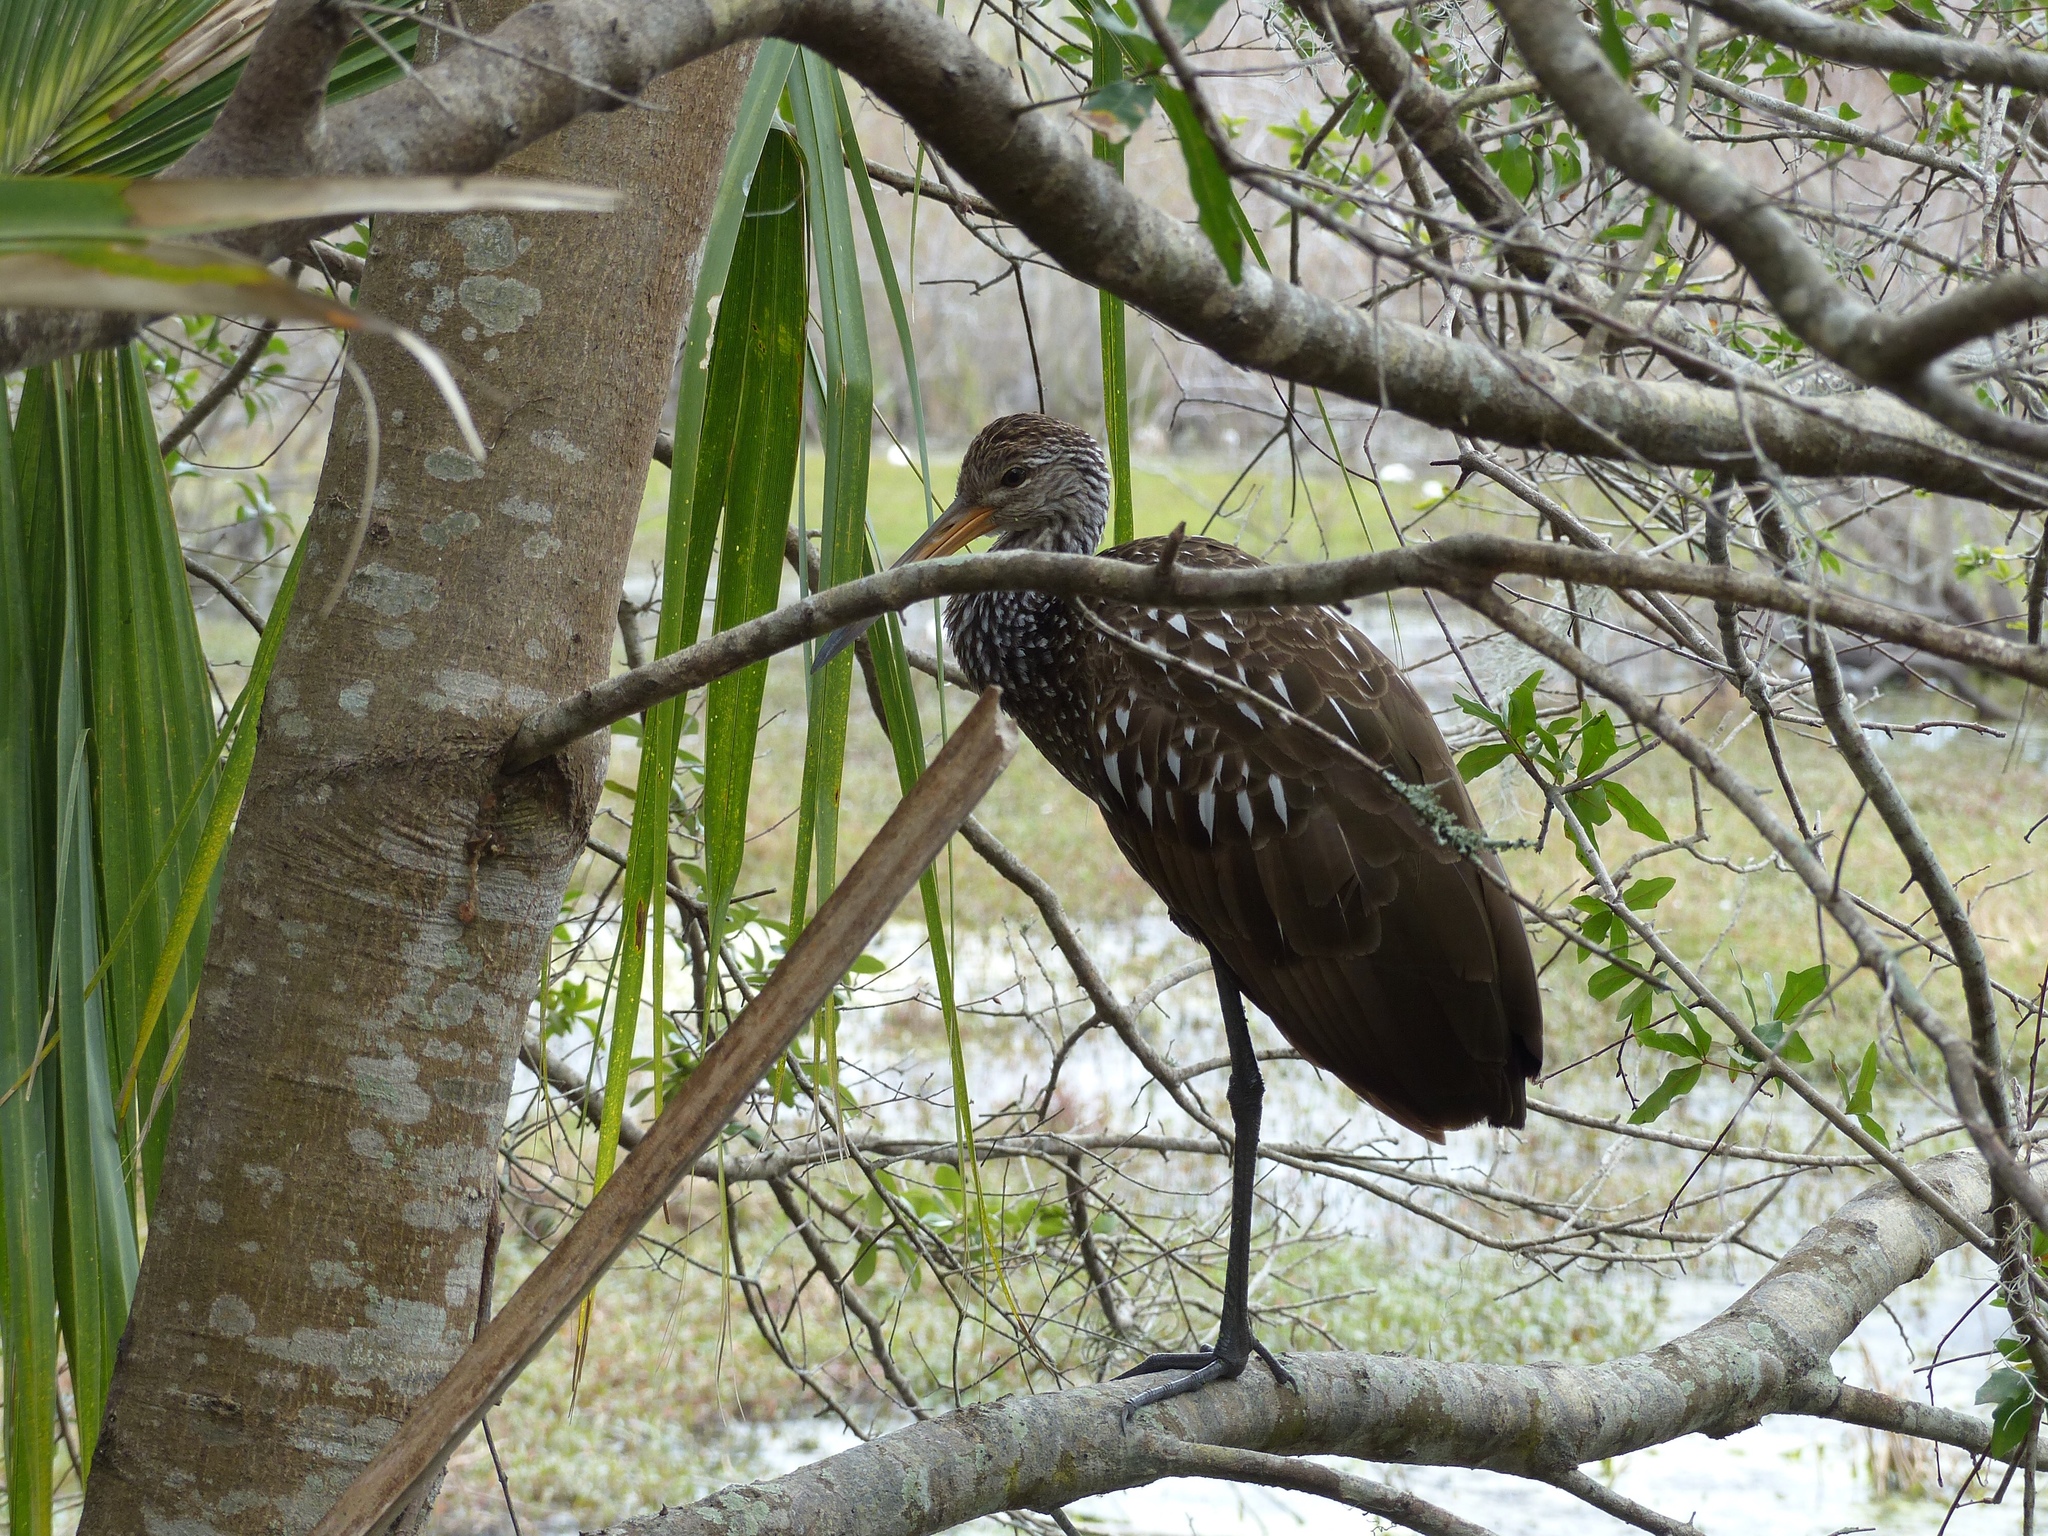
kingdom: Animalia
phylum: Chordata
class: Aves
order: Gruiformes
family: Aramidae
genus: Aramus
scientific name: Aramus guarauna
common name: Limpkin
